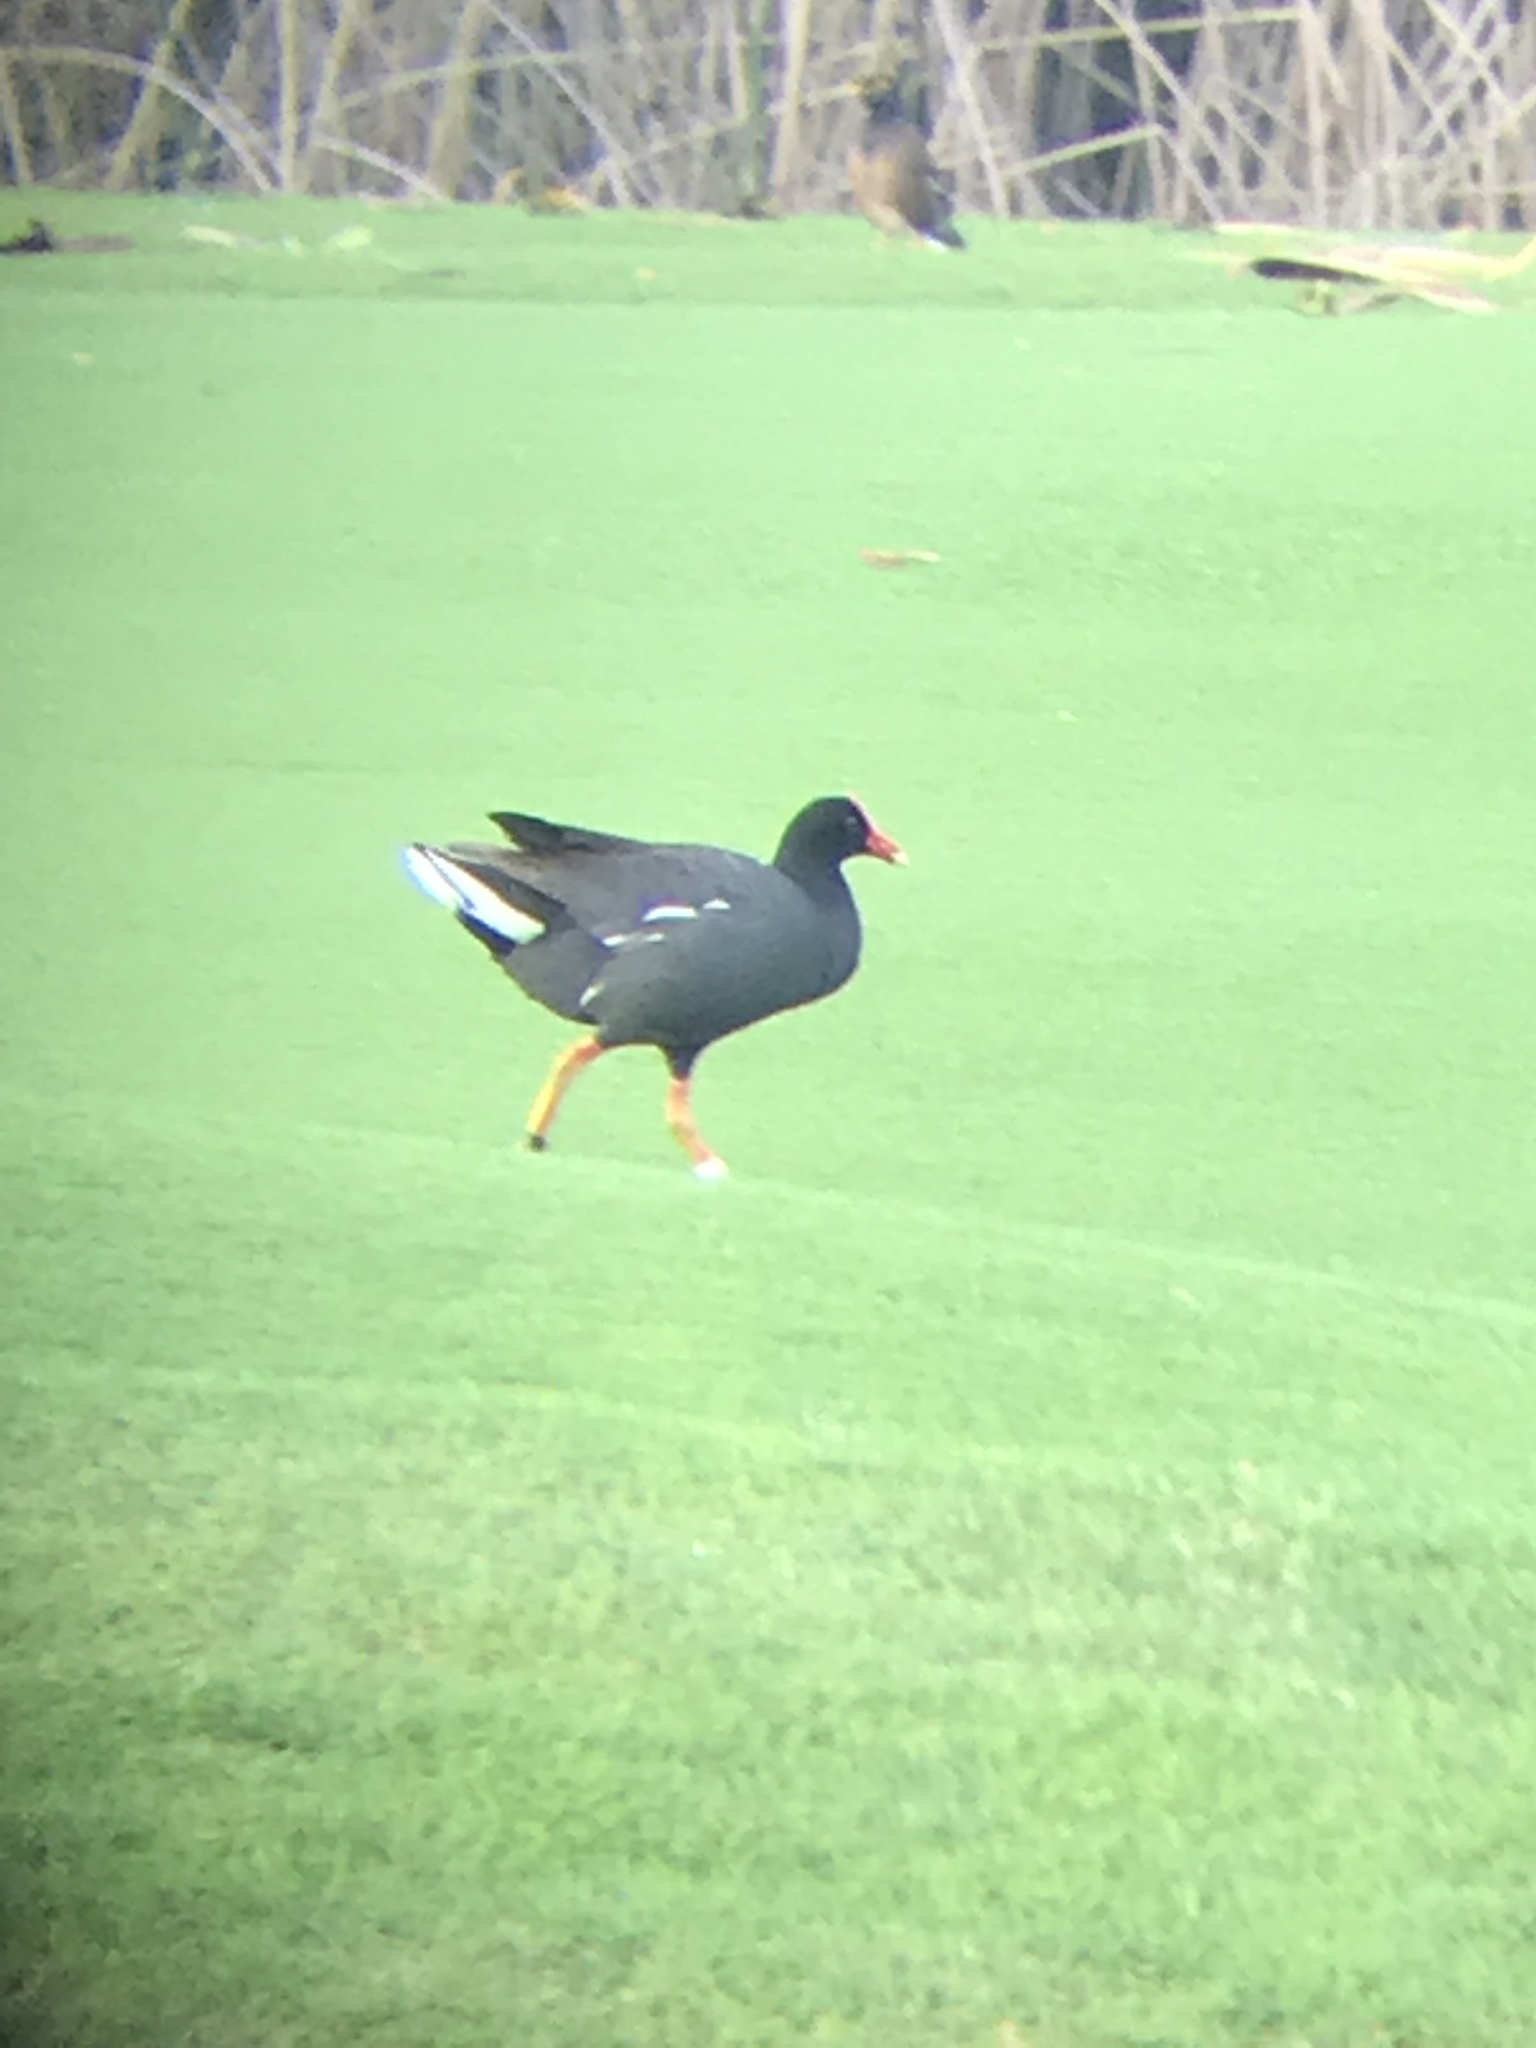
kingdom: Animalia
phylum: Chordata
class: Aves
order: Gruiformes
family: Rallidae
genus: Gallinula
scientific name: Gallinula chloropus
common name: Common moorhen
